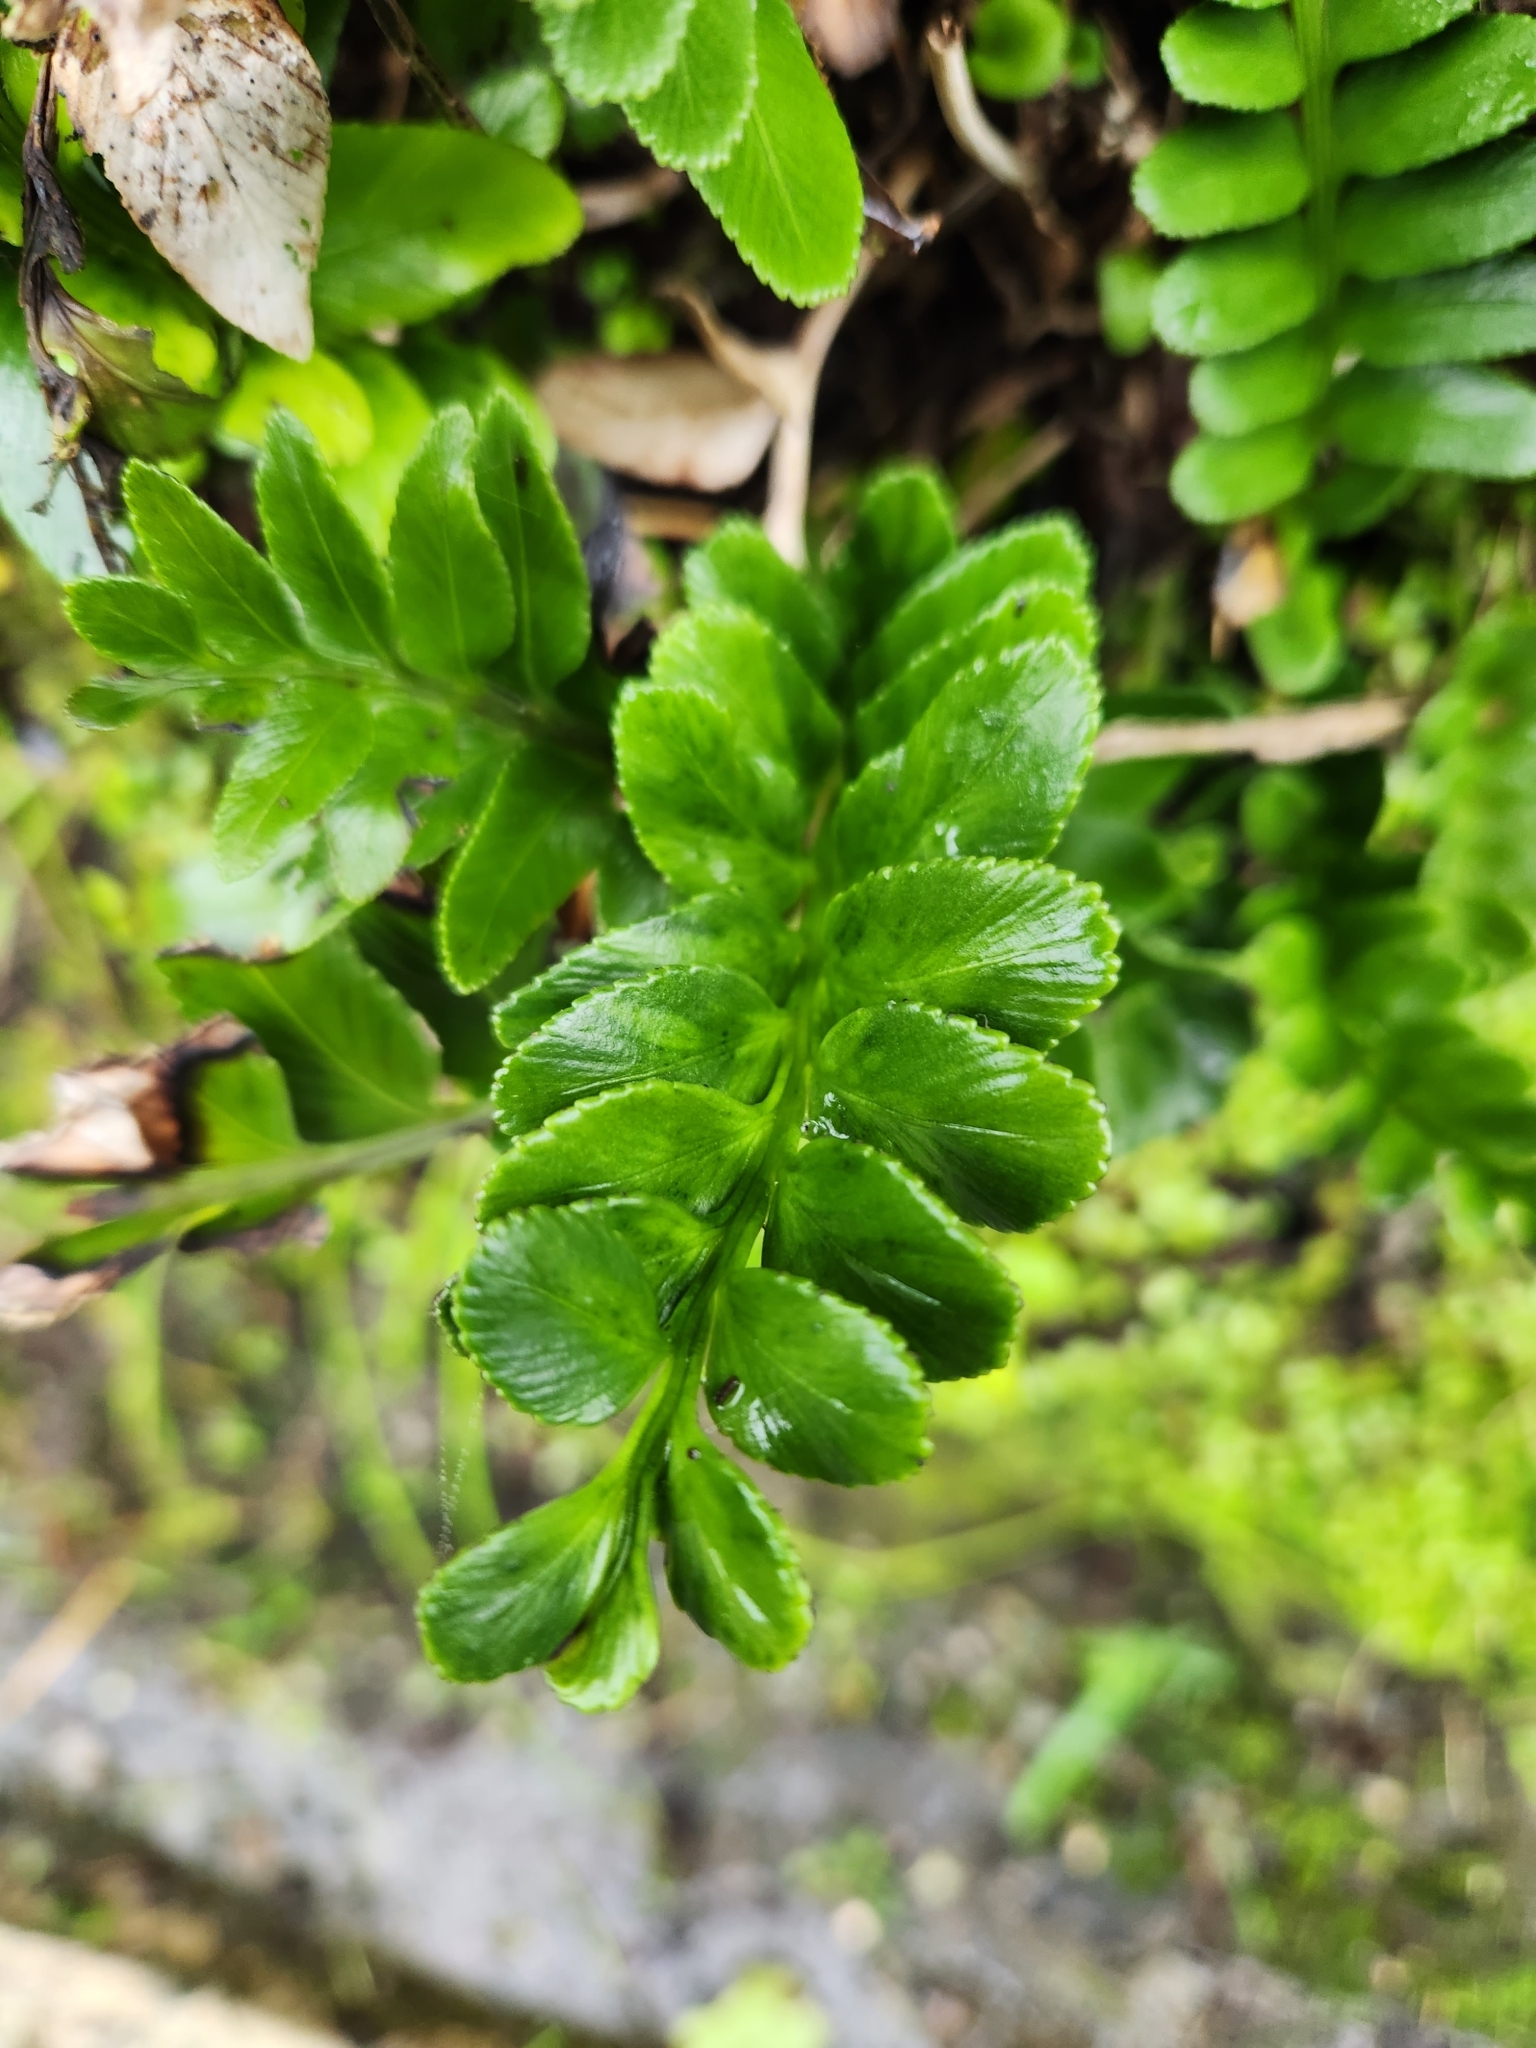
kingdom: Plantae
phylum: Tracheophyta
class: Polypodiopsida
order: Polypodiales
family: Aspleniaceae
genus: Asplenium
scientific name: Asplenium obtusatum
